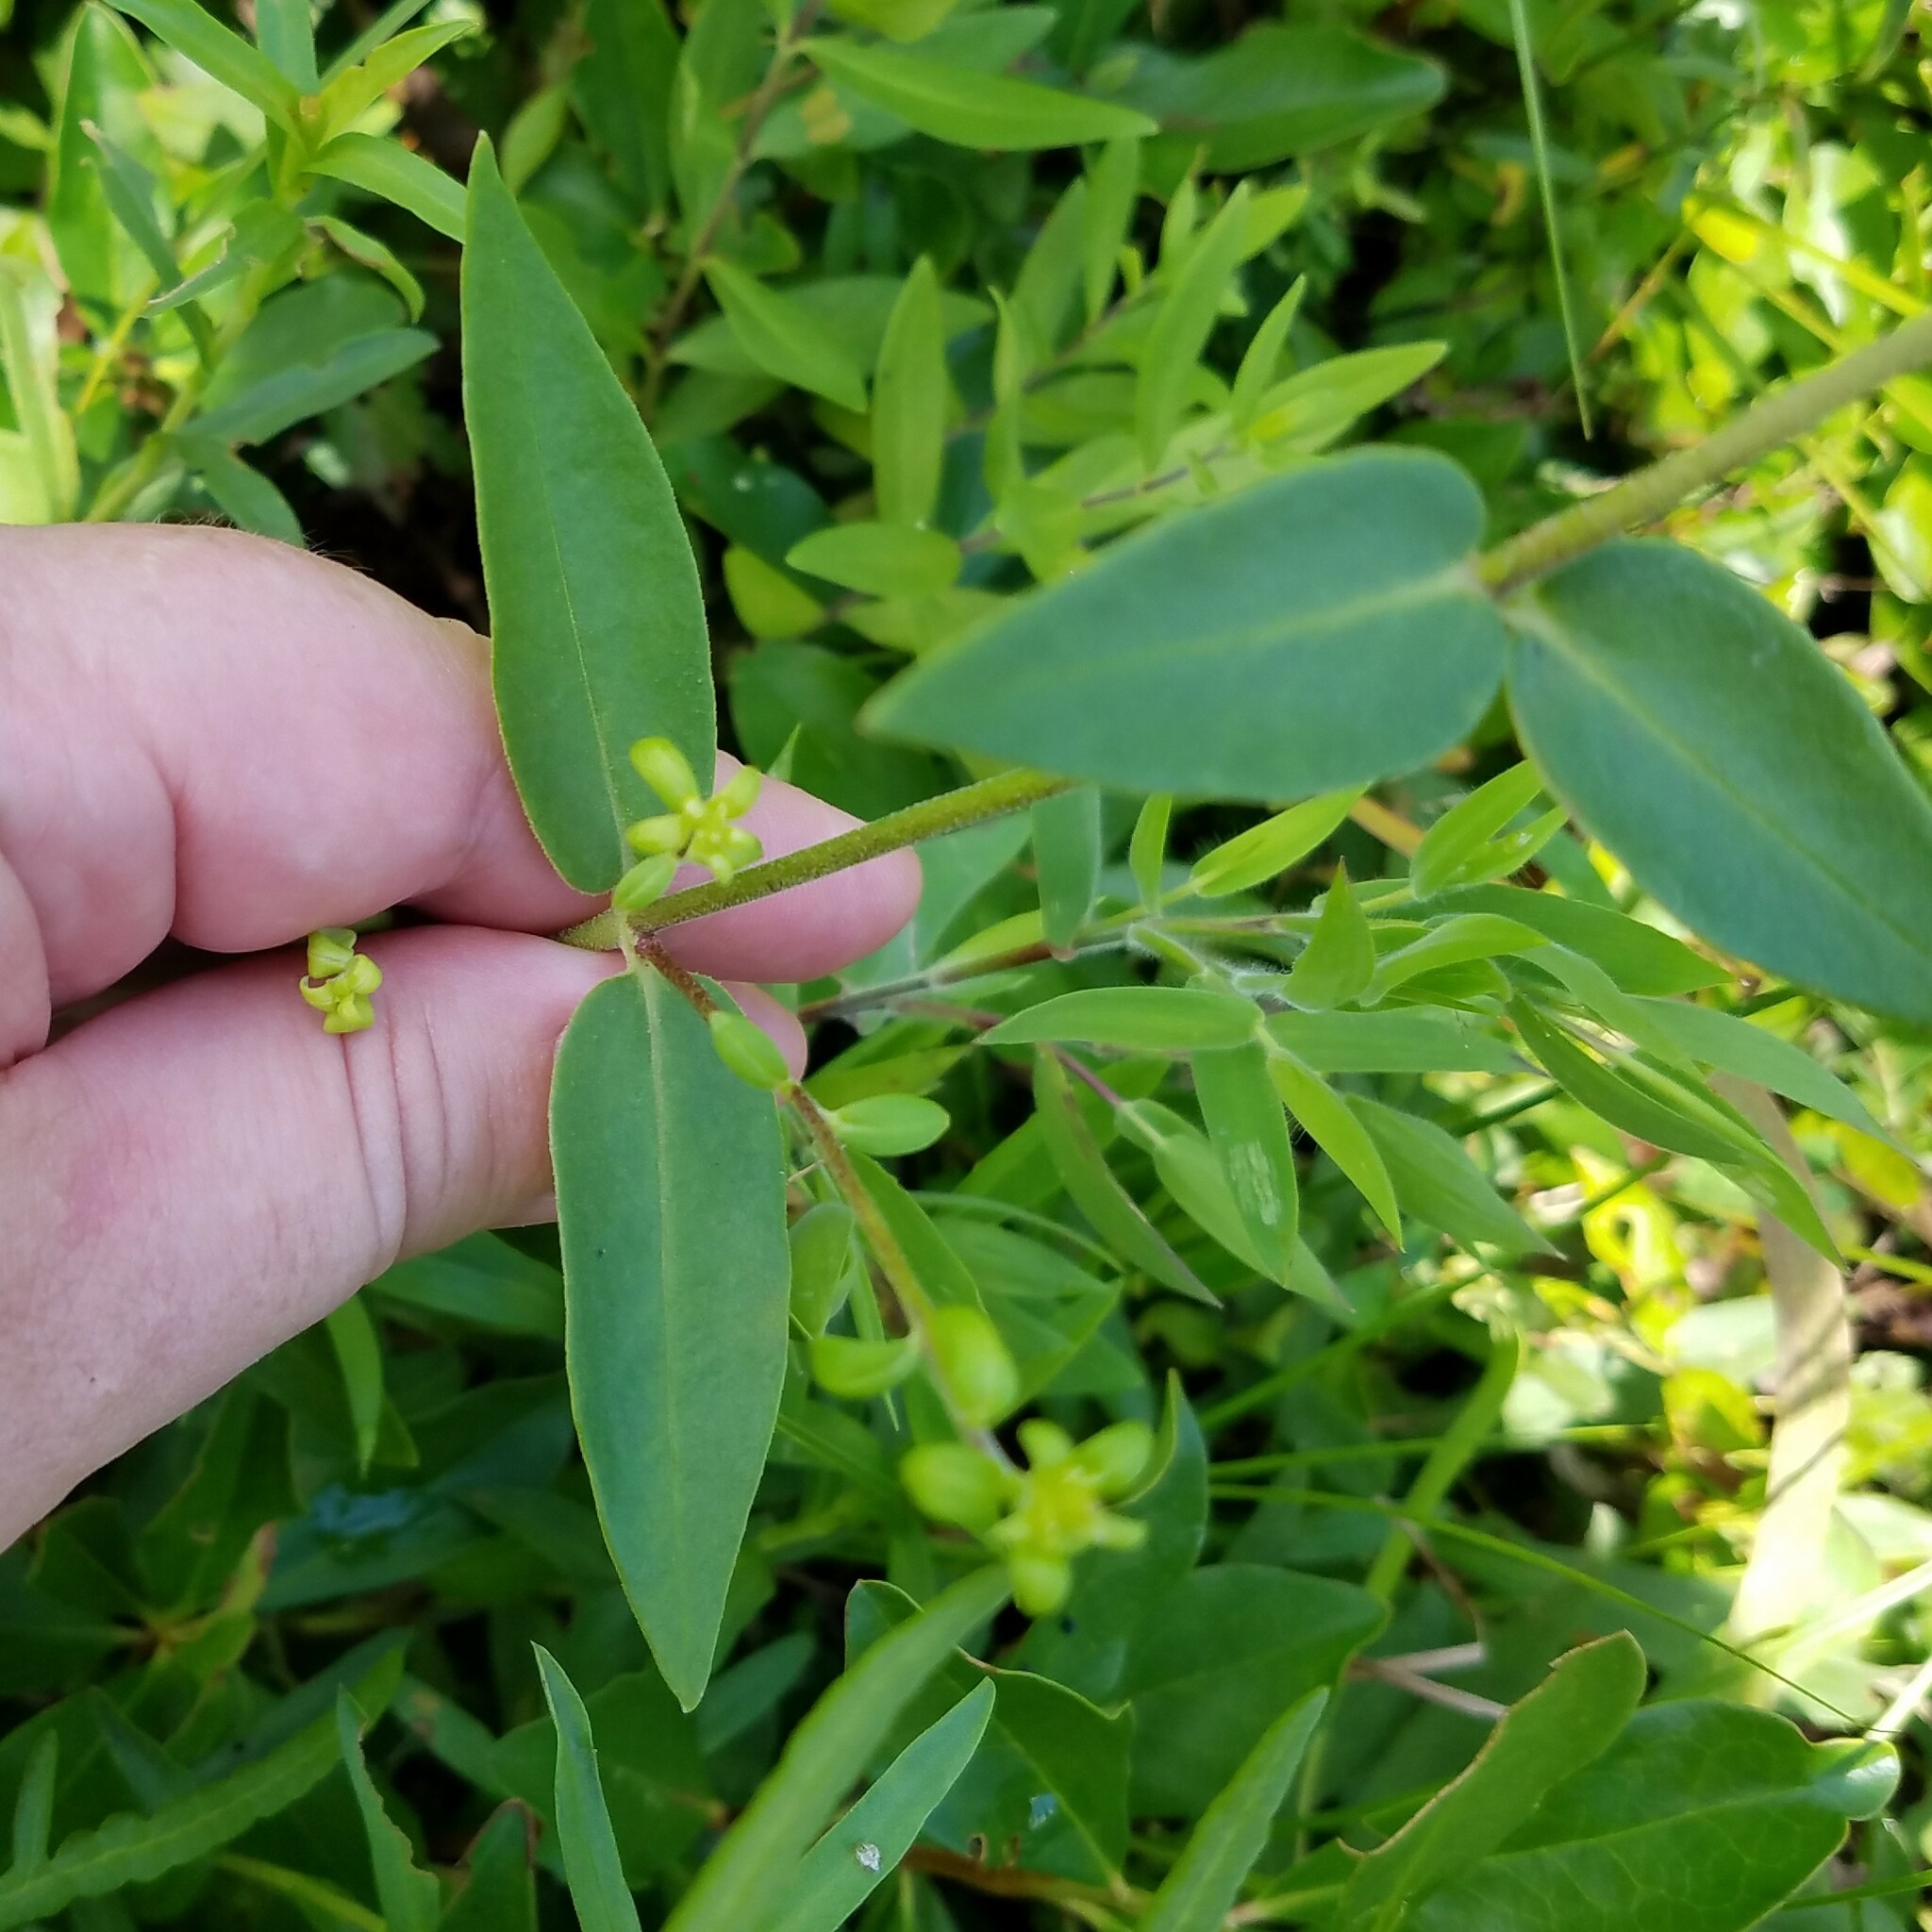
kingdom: Plantae
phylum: Tracheophyta
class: Magnoliopsida
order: Ericales
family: Polemoniaceae
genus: Phlox
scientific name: Phlox glaberrima
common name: Smooth phlox
